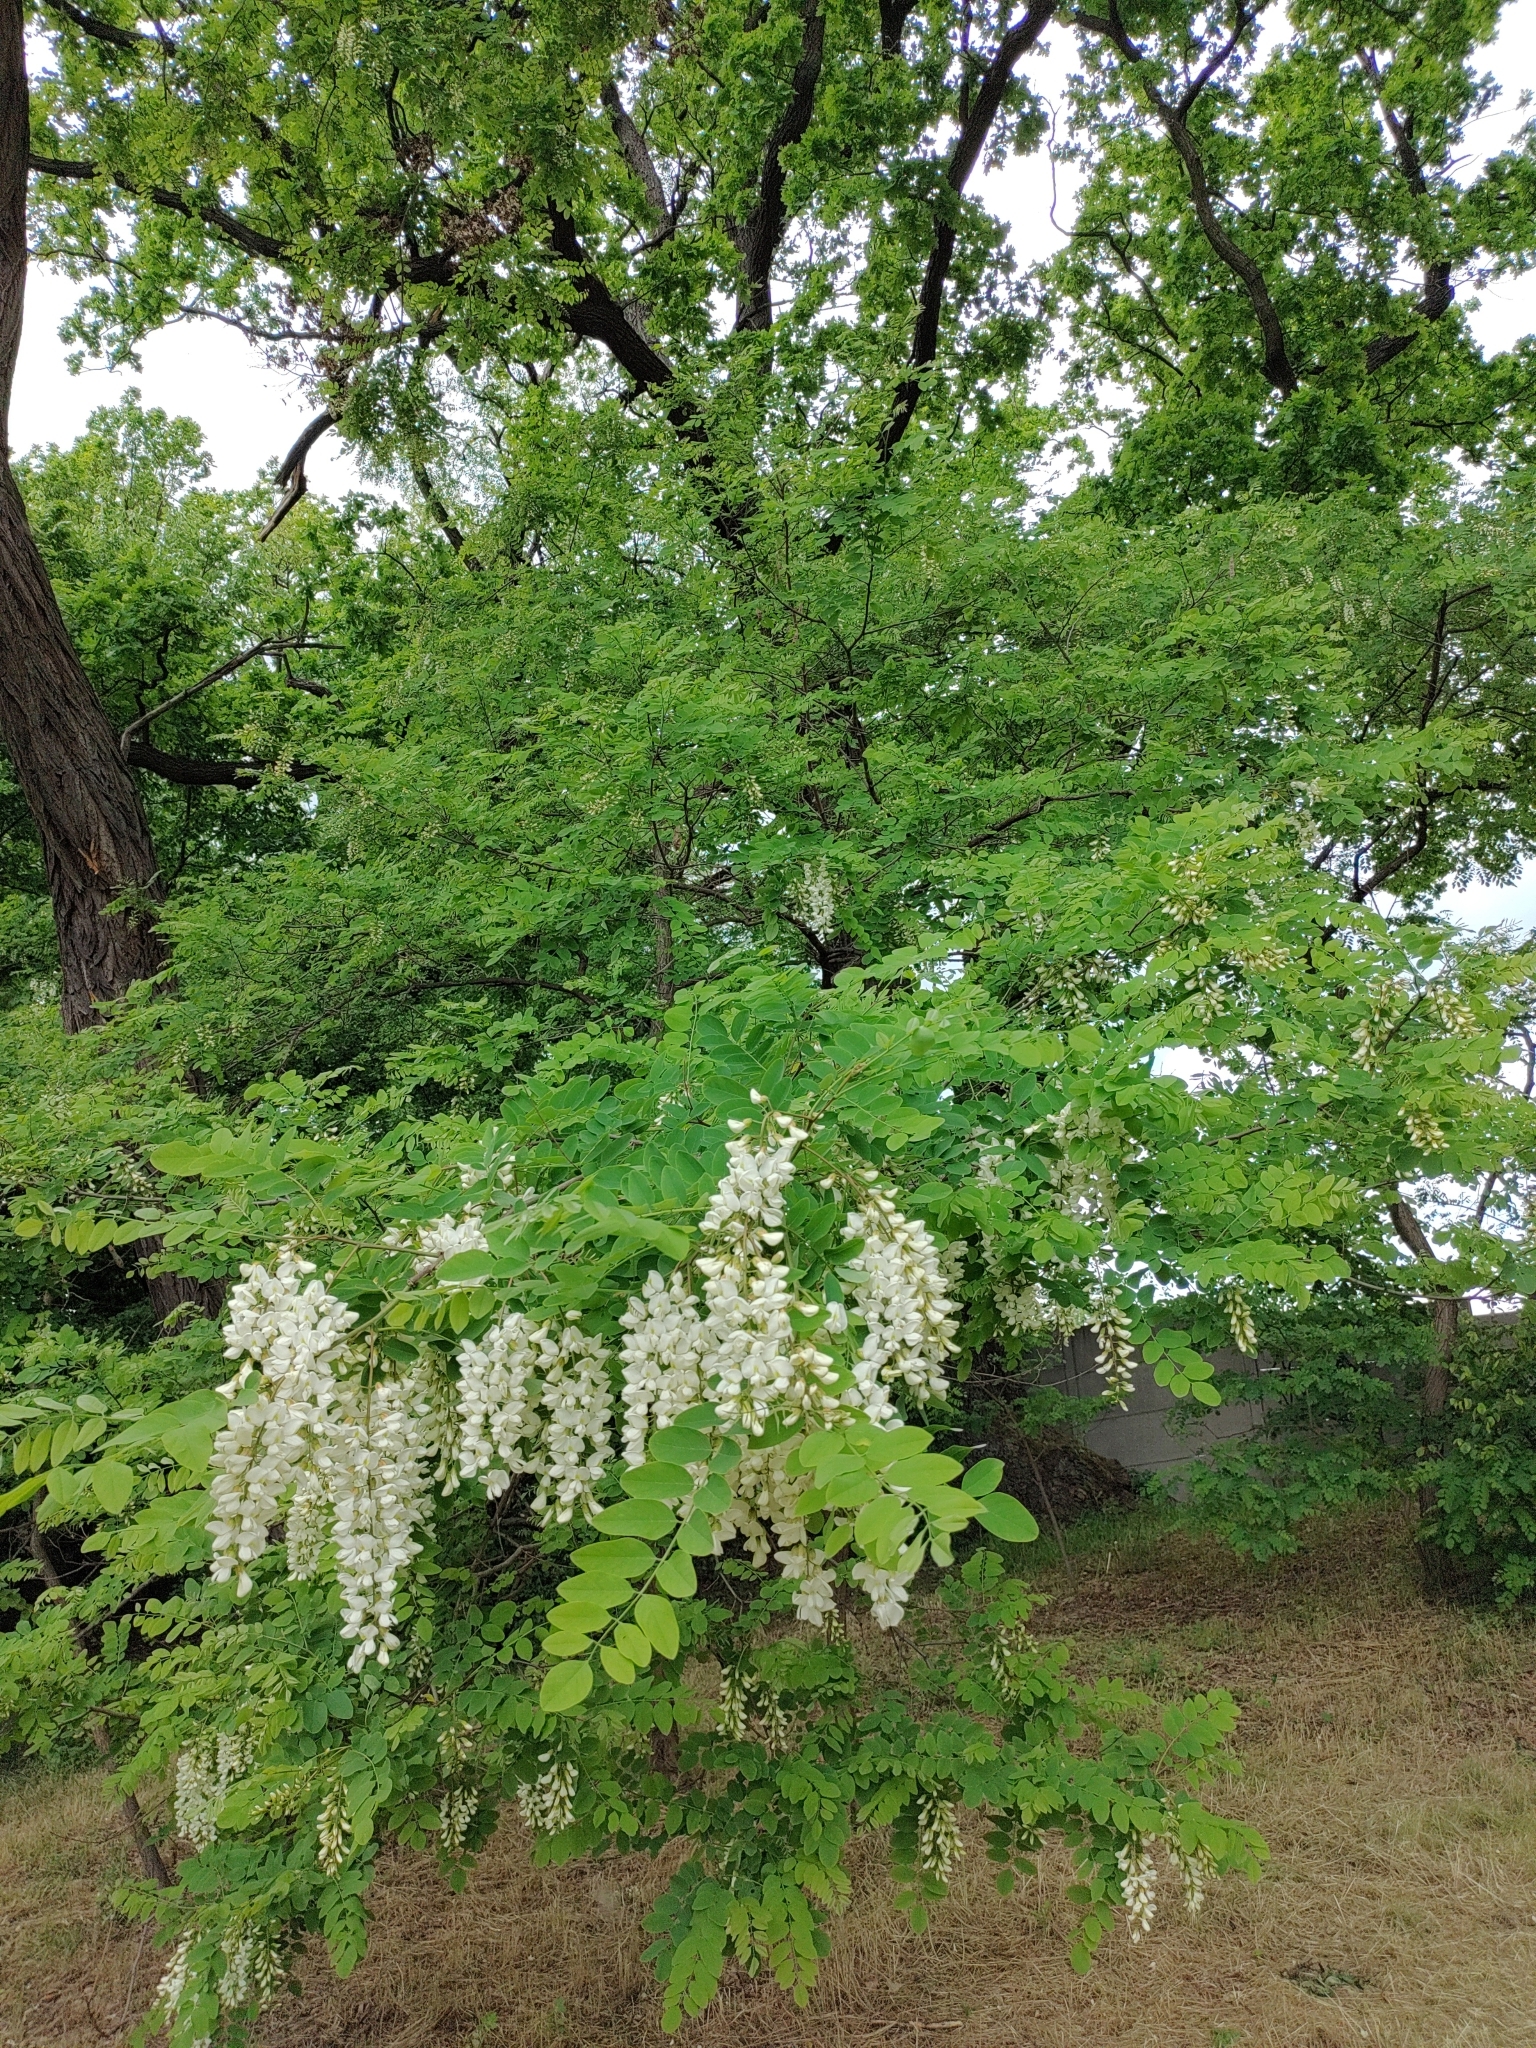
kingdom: Plantae
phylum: Tracheophyta
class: Magnoliopsida
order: Fabales
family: Fabaceae
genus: Robinia
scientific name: Robinia pseudoacacia
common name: Black locust
